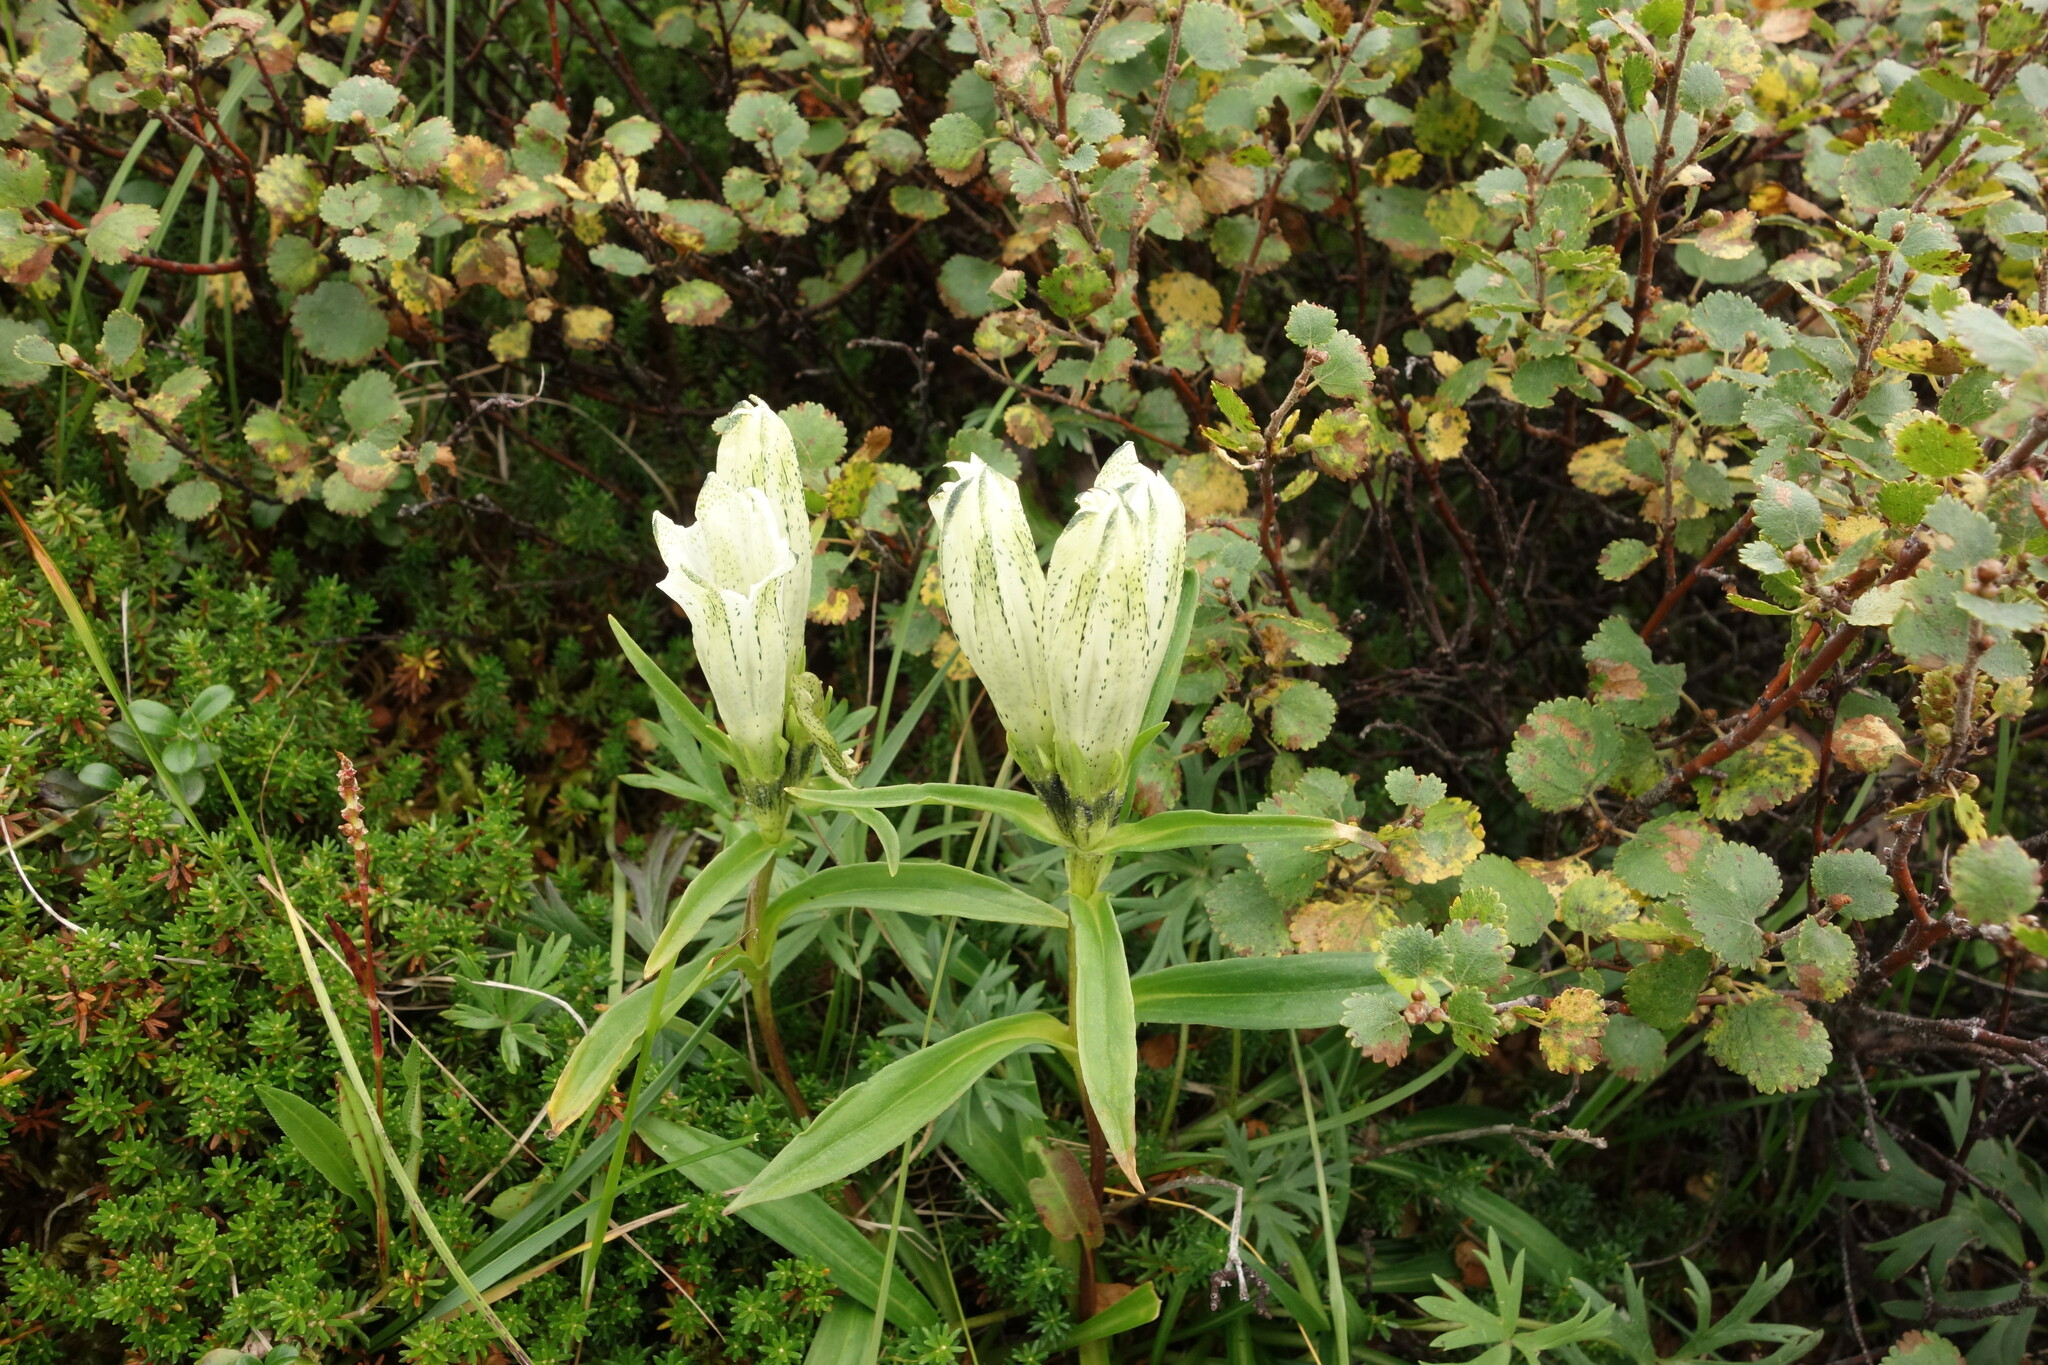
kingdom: Plantae
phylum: Tracheophyta
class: Magnoliopsida
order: Gentianales
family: Gentianaceae
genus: Gentiana
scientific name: Gentiana algida
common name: Arctic gentian
